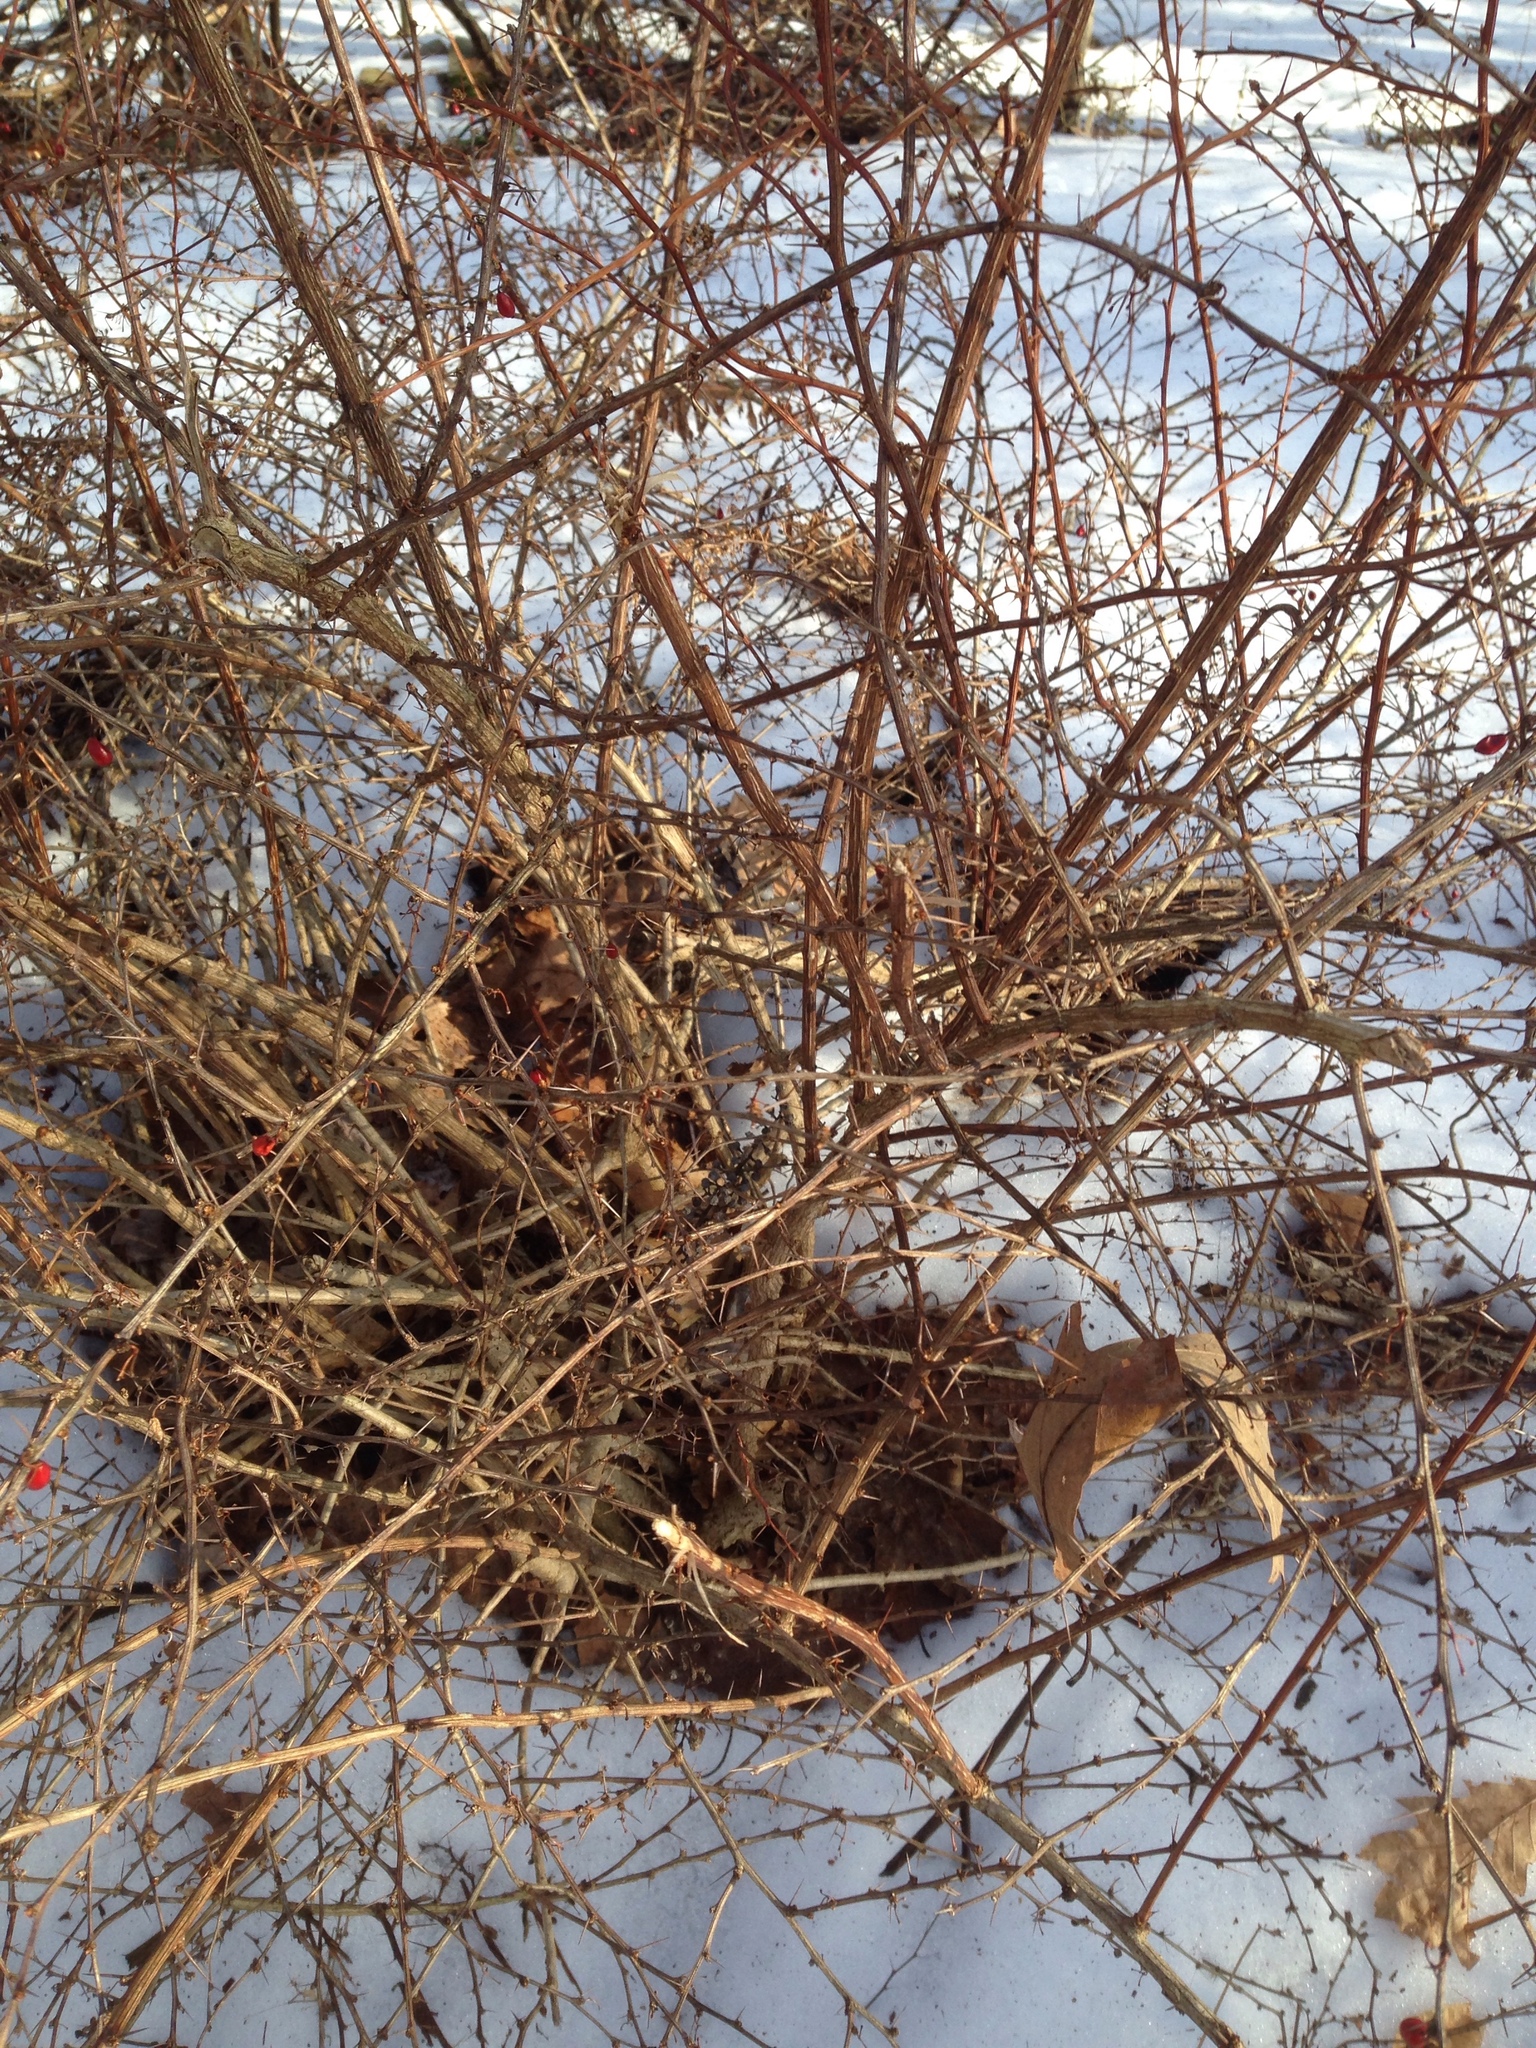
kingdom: Plantae
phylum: Tracheophyta
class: Magnoliopsida
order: Ranunculales
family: Berberidaceae
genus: Berberis
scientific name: Berberis thunbergii
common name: Japanese barberry
